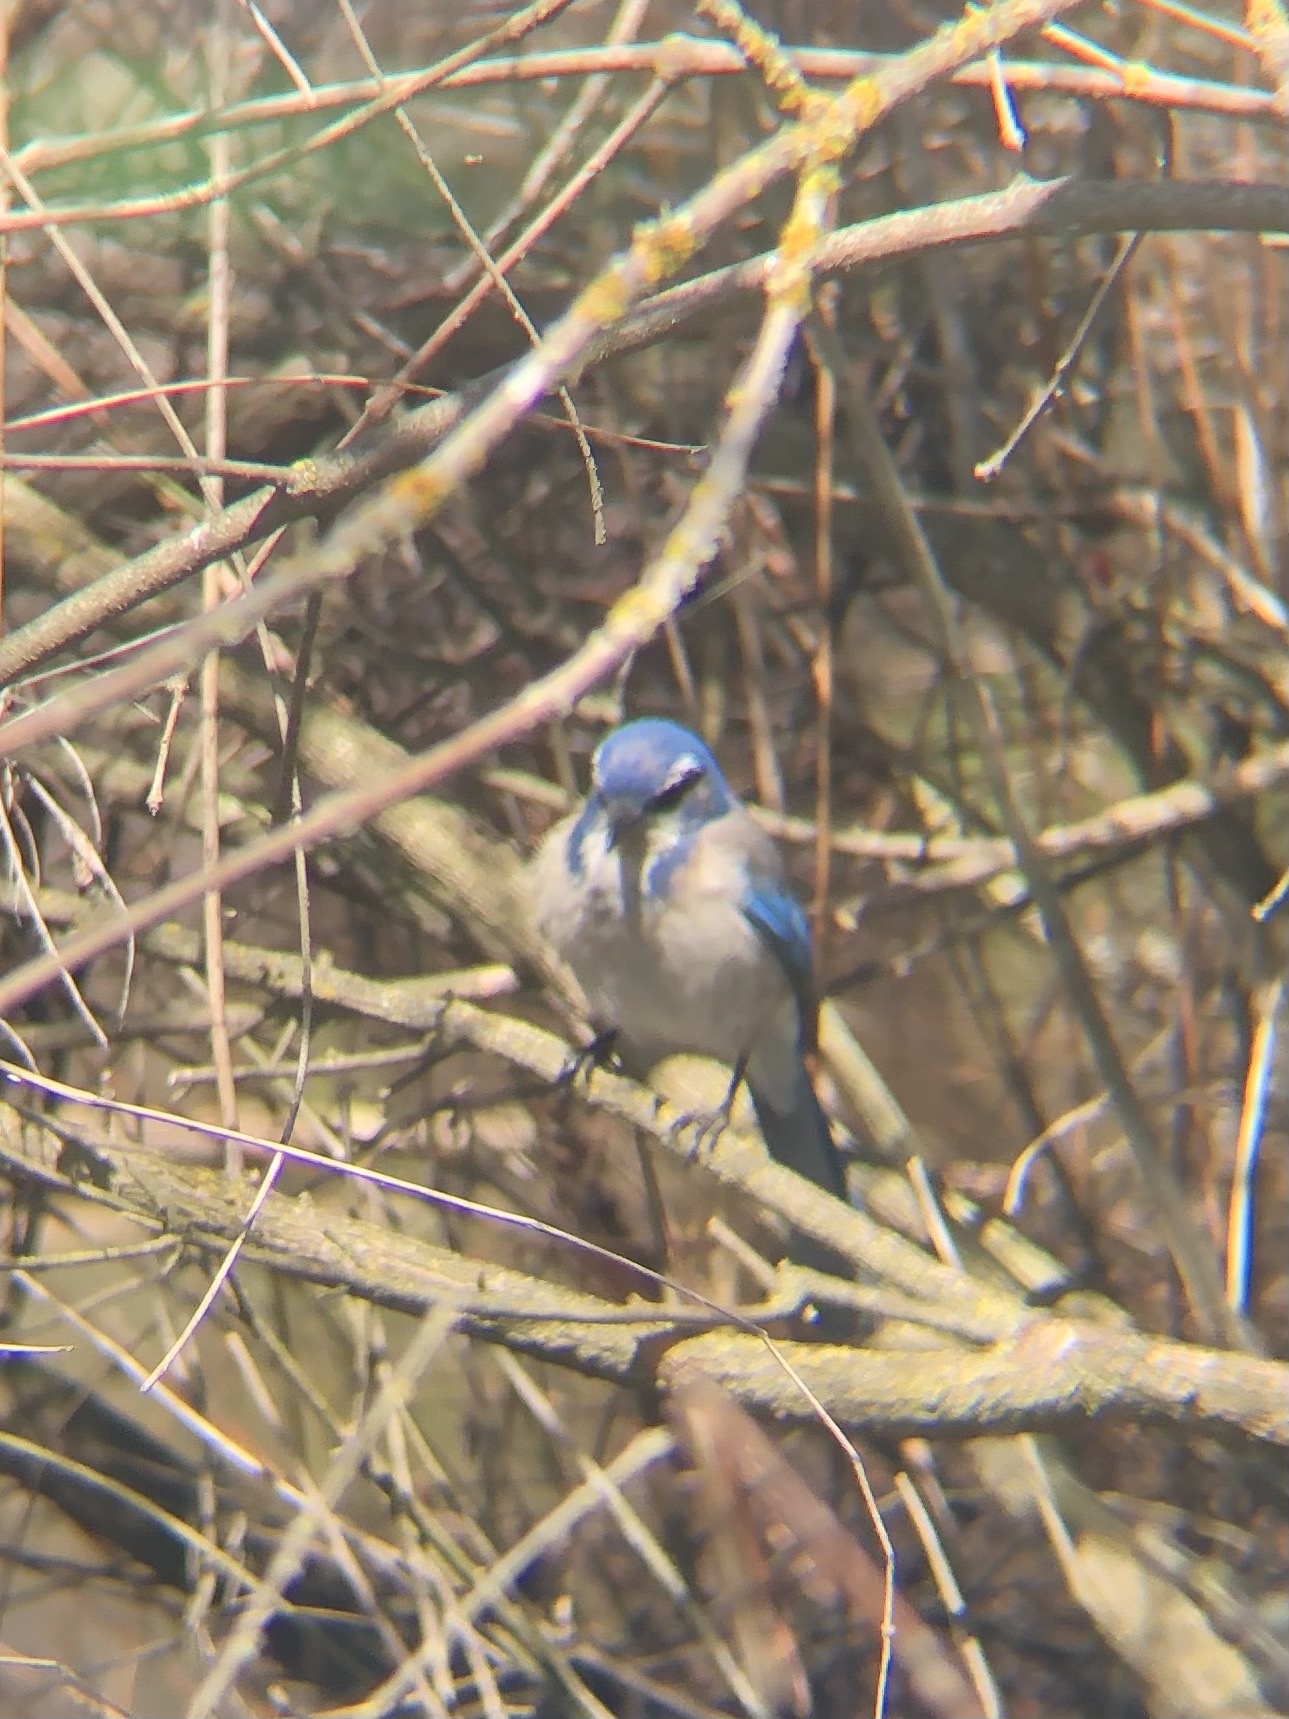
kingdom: Animalia
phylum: Chordata
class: Aves
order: Passeriformes
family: Corvidae
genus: Aphelocoma
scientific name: Aphelocoma californica
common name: California scrub-jay
